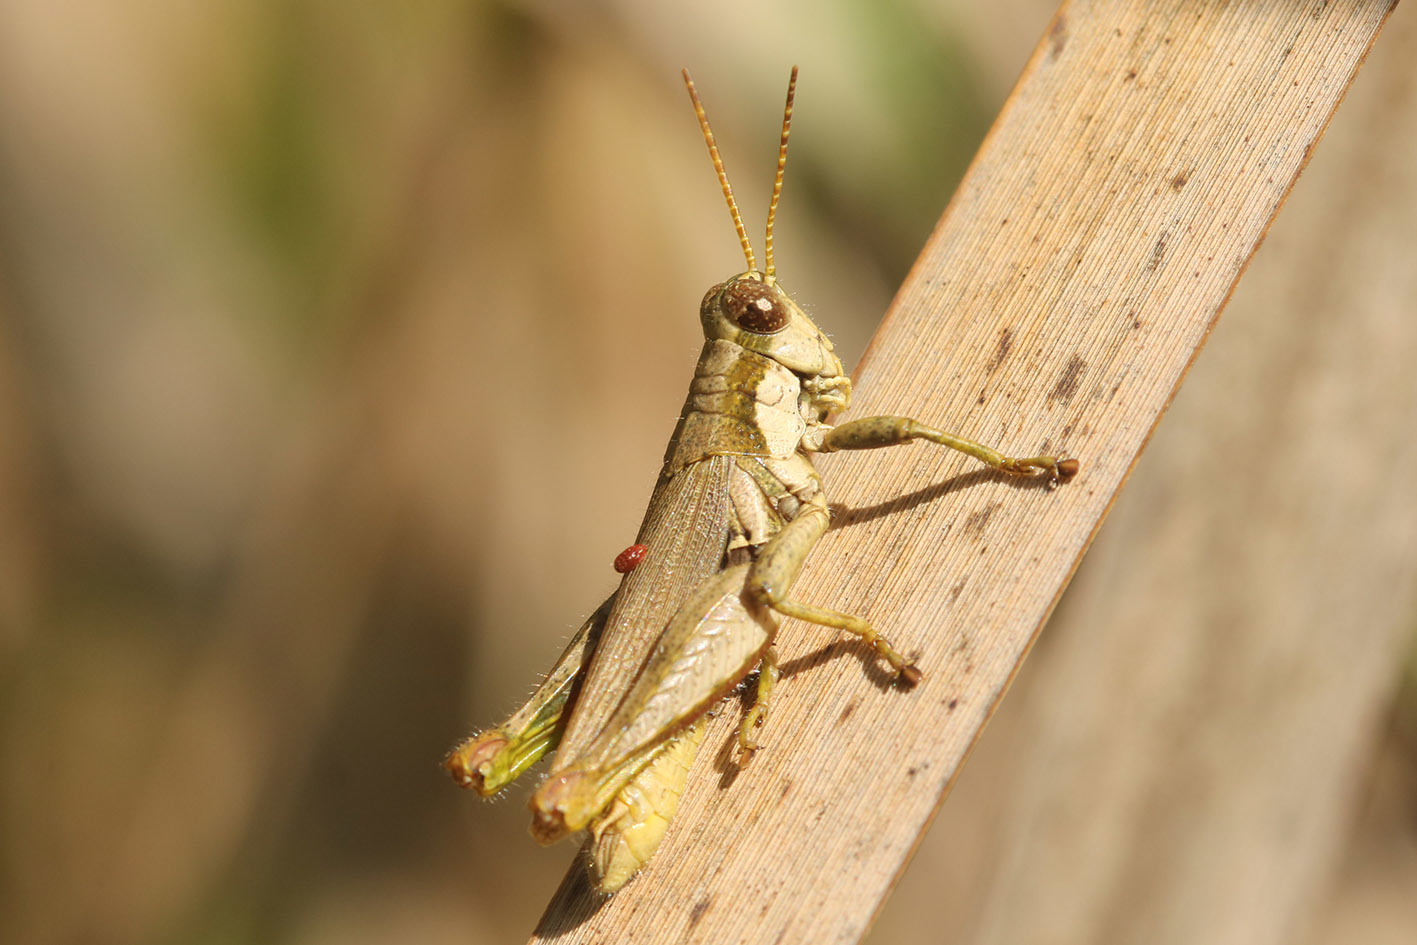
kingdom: Animalia
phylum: Arthropoda
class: Insecta
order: Orthoptera
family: Acrididae
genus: Ronderosia
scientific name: Ronderosia bergii
